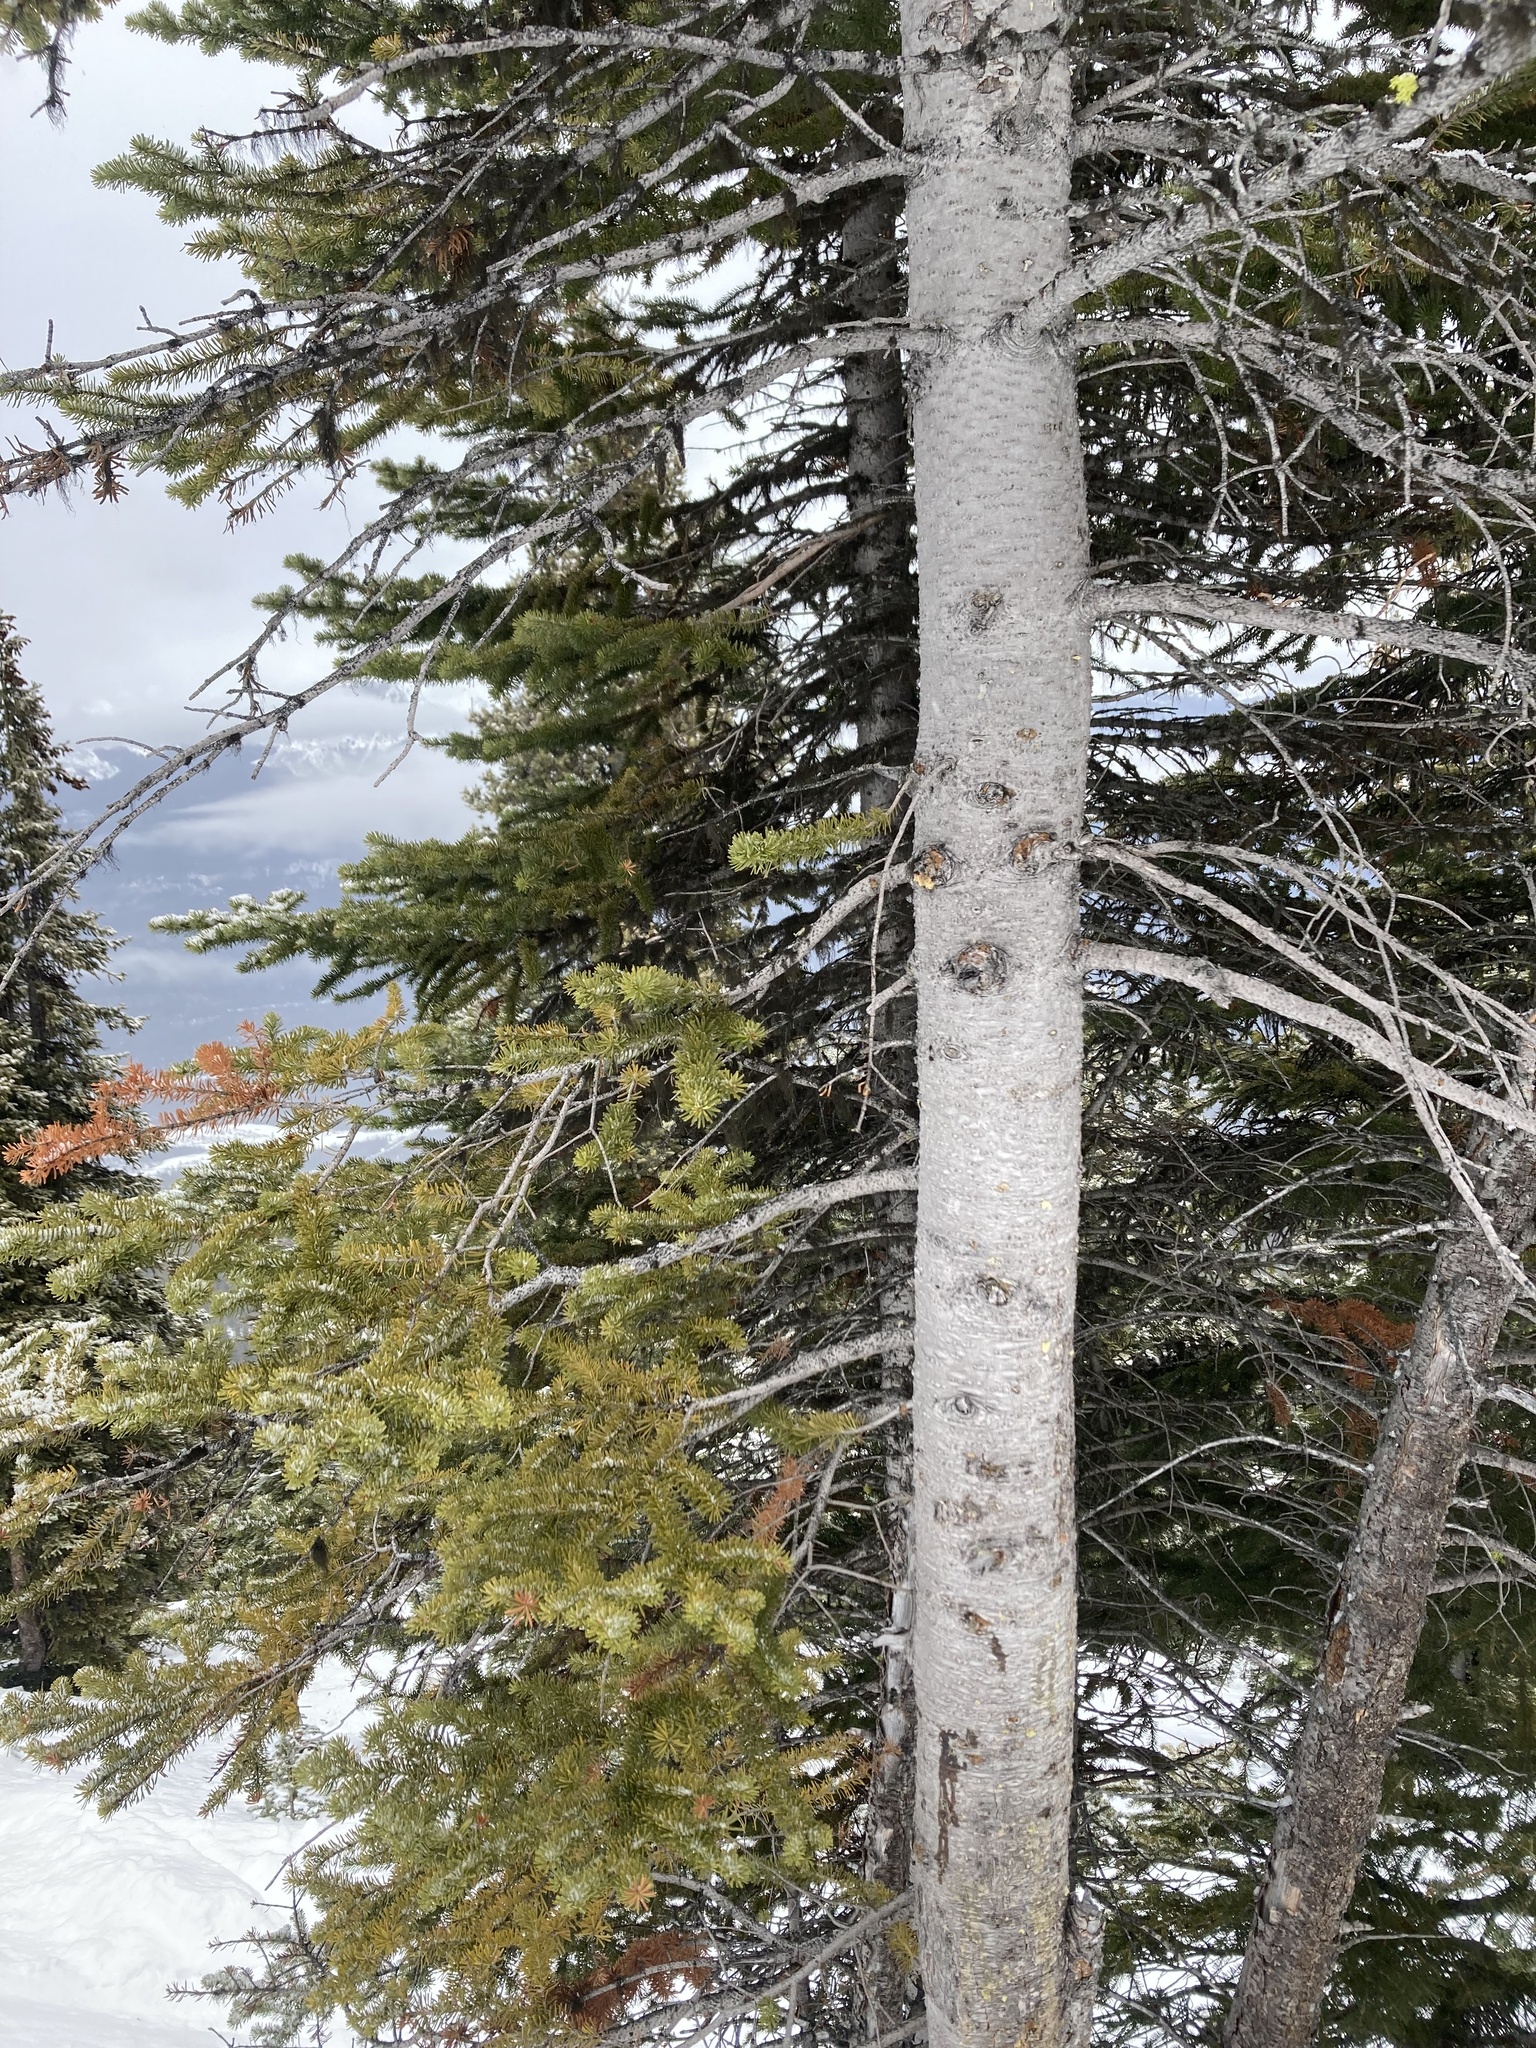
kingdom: Plantae
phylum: Tracheophyta
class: Pinopsida
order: Pinales
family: Pinaceae
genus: Abies
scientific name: Abies lasiocarpa
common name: Subalpine fir
